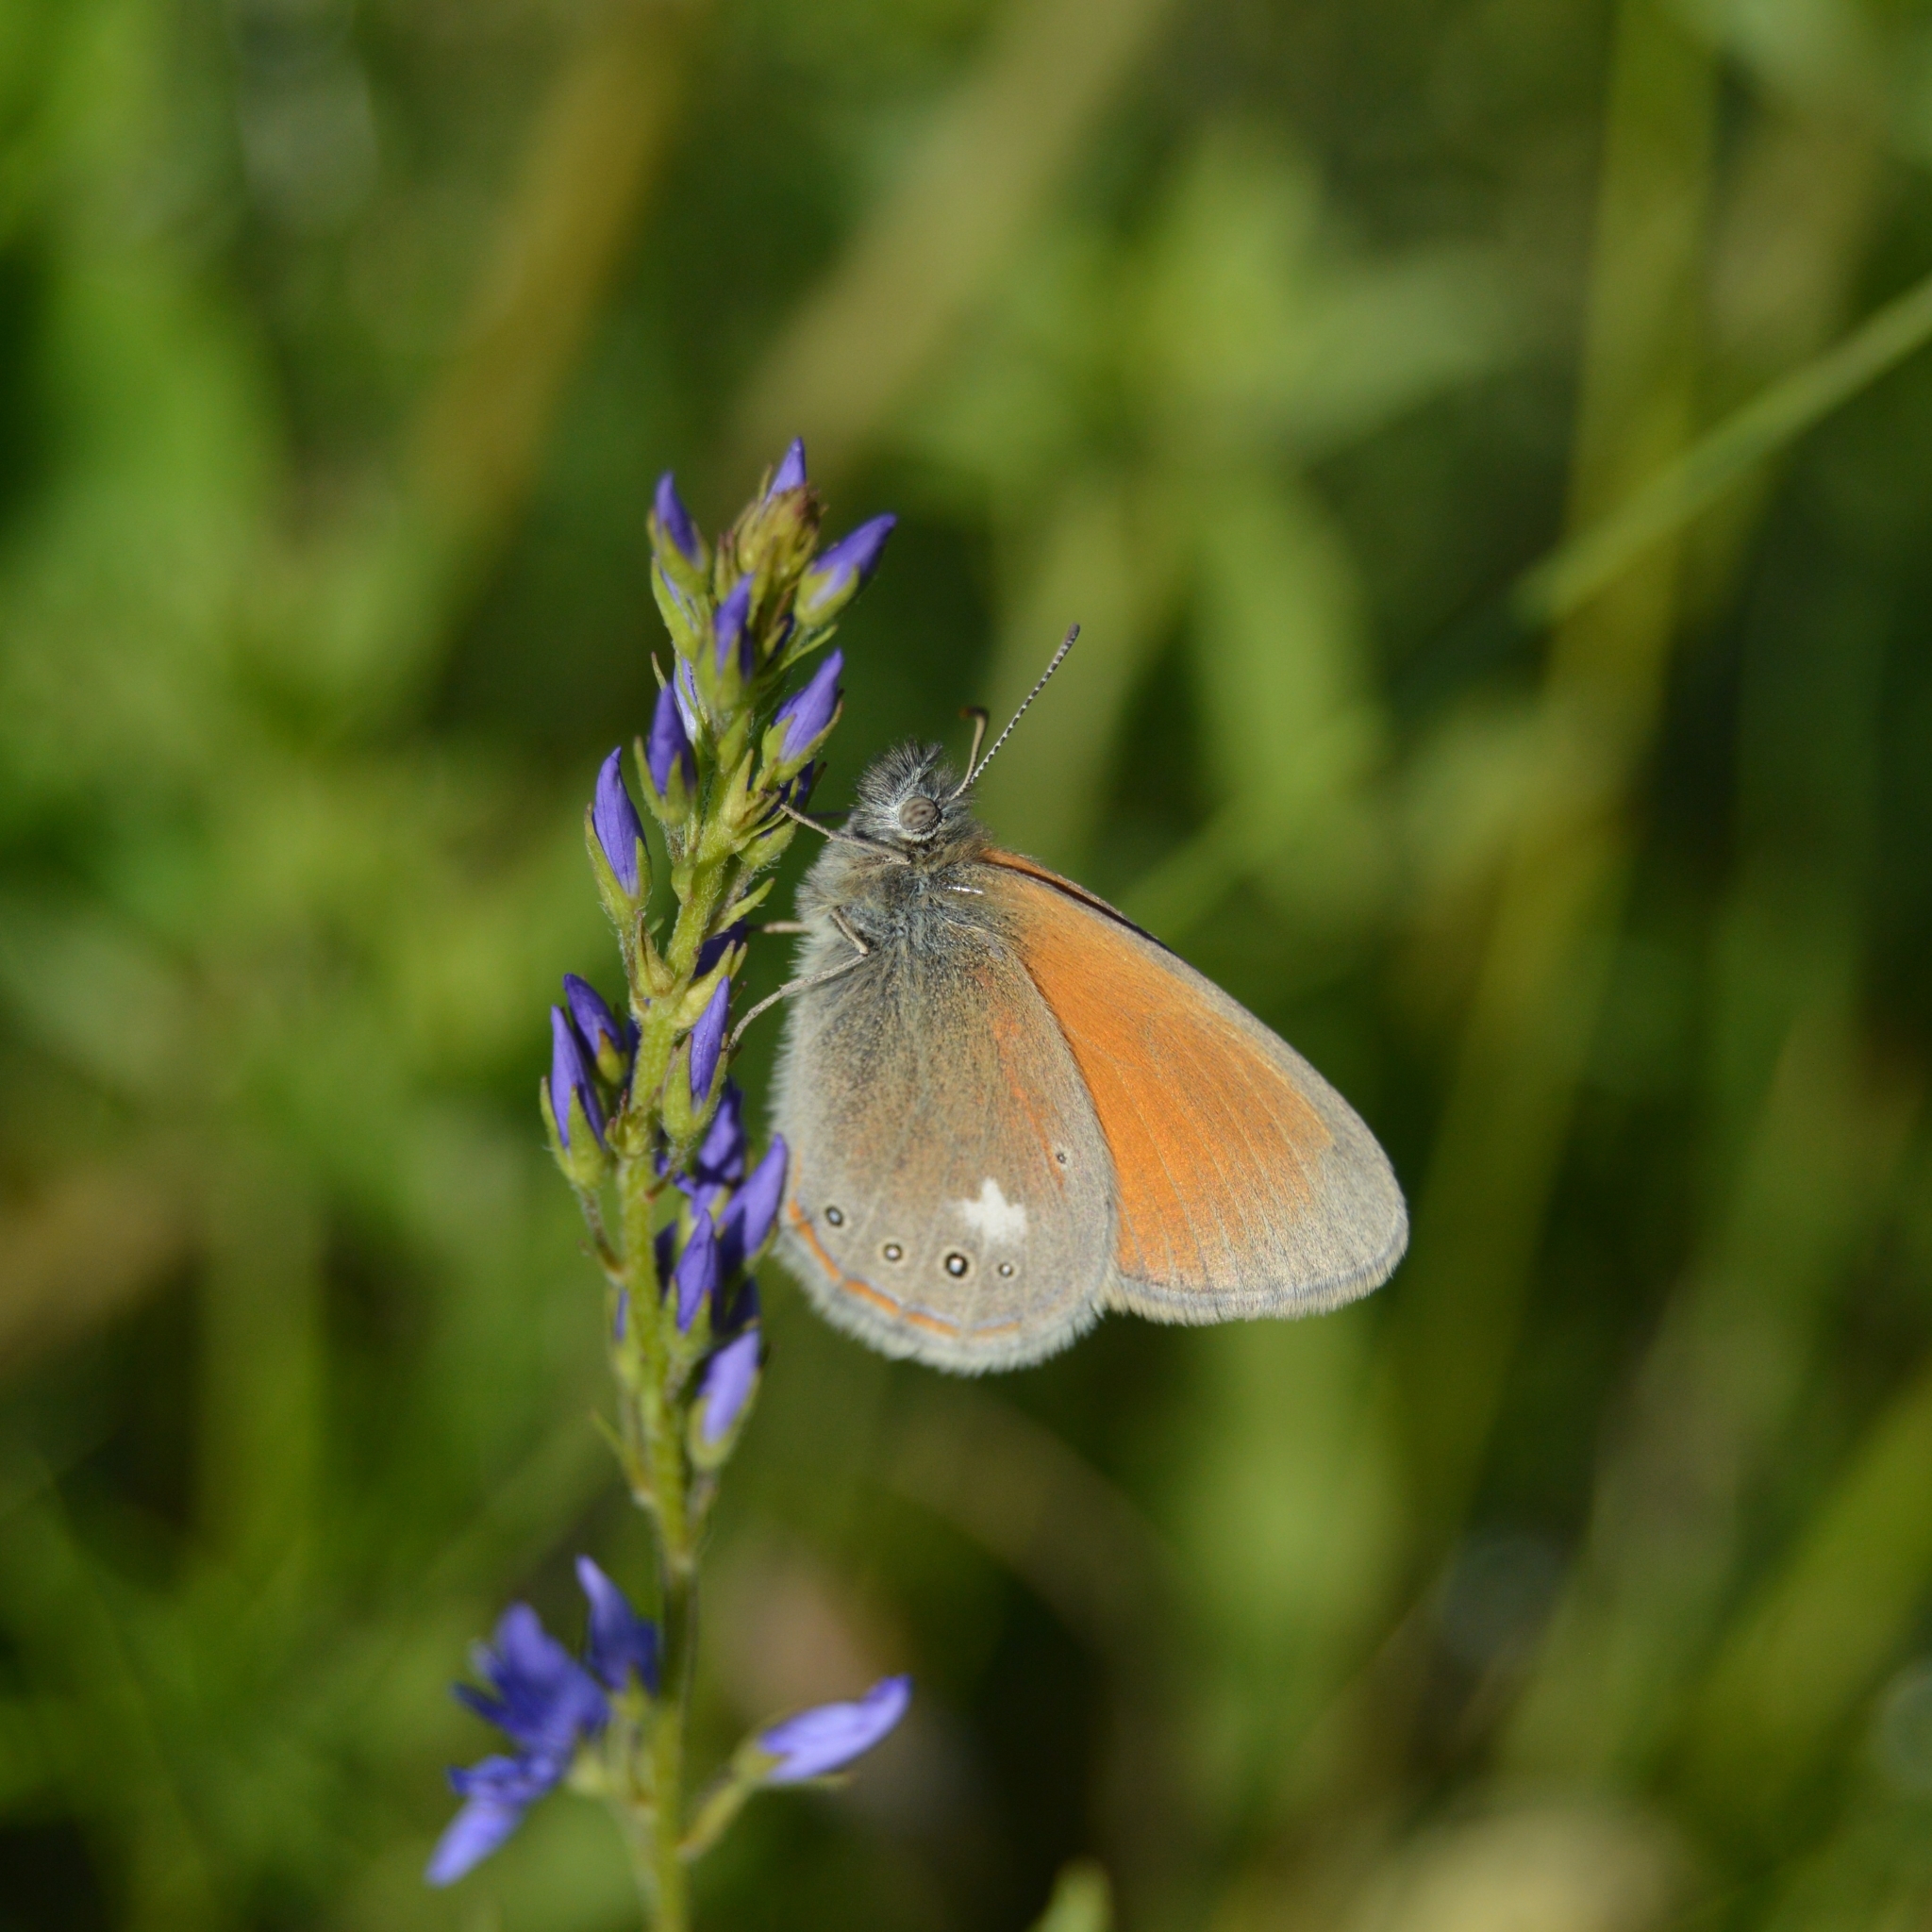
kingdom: Animalia
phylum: Arthropoda
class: Insecta
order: Lepidoptera
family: Nymphalidae
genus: Coenonympha
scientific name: Coenonympha iphis
